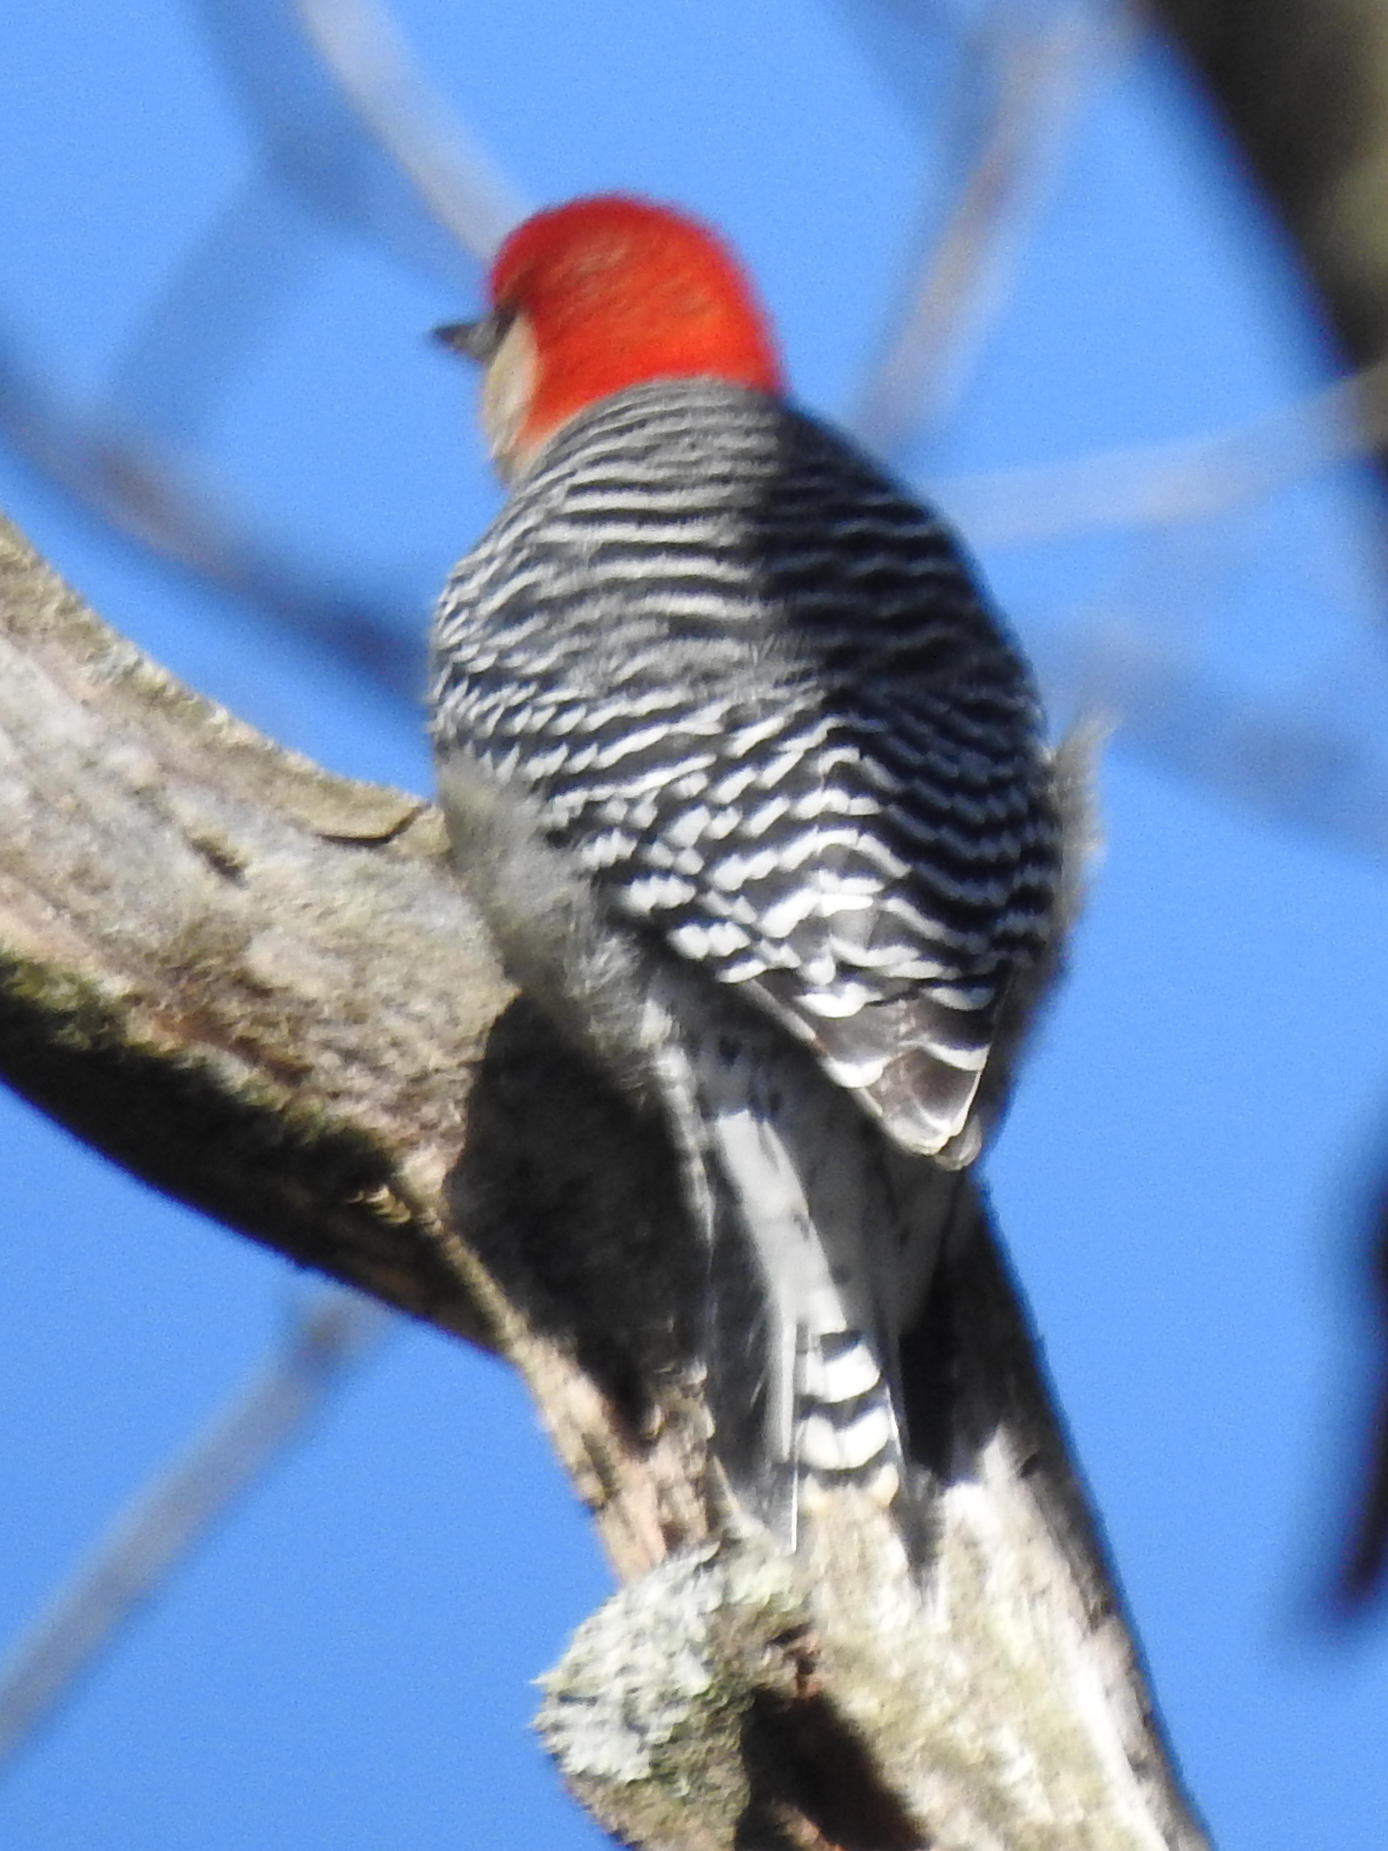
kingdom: Animalia
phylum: Chordata
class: Aves
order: Piciformes
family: Picidae
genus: Melanerpes
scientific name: Melanerpes carolinus
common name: Red-bellied woodpecker
